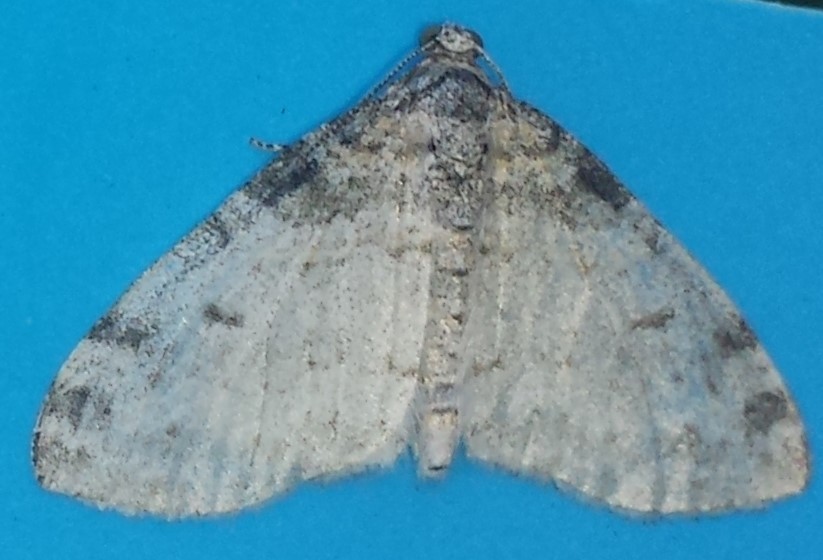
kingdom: Animalia
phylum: Arthropoda
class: Insecta
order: Lepidoptera
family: Geometridae
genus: Lobophora
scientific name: Lobophora nivigerata
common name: Powdered bigwing
